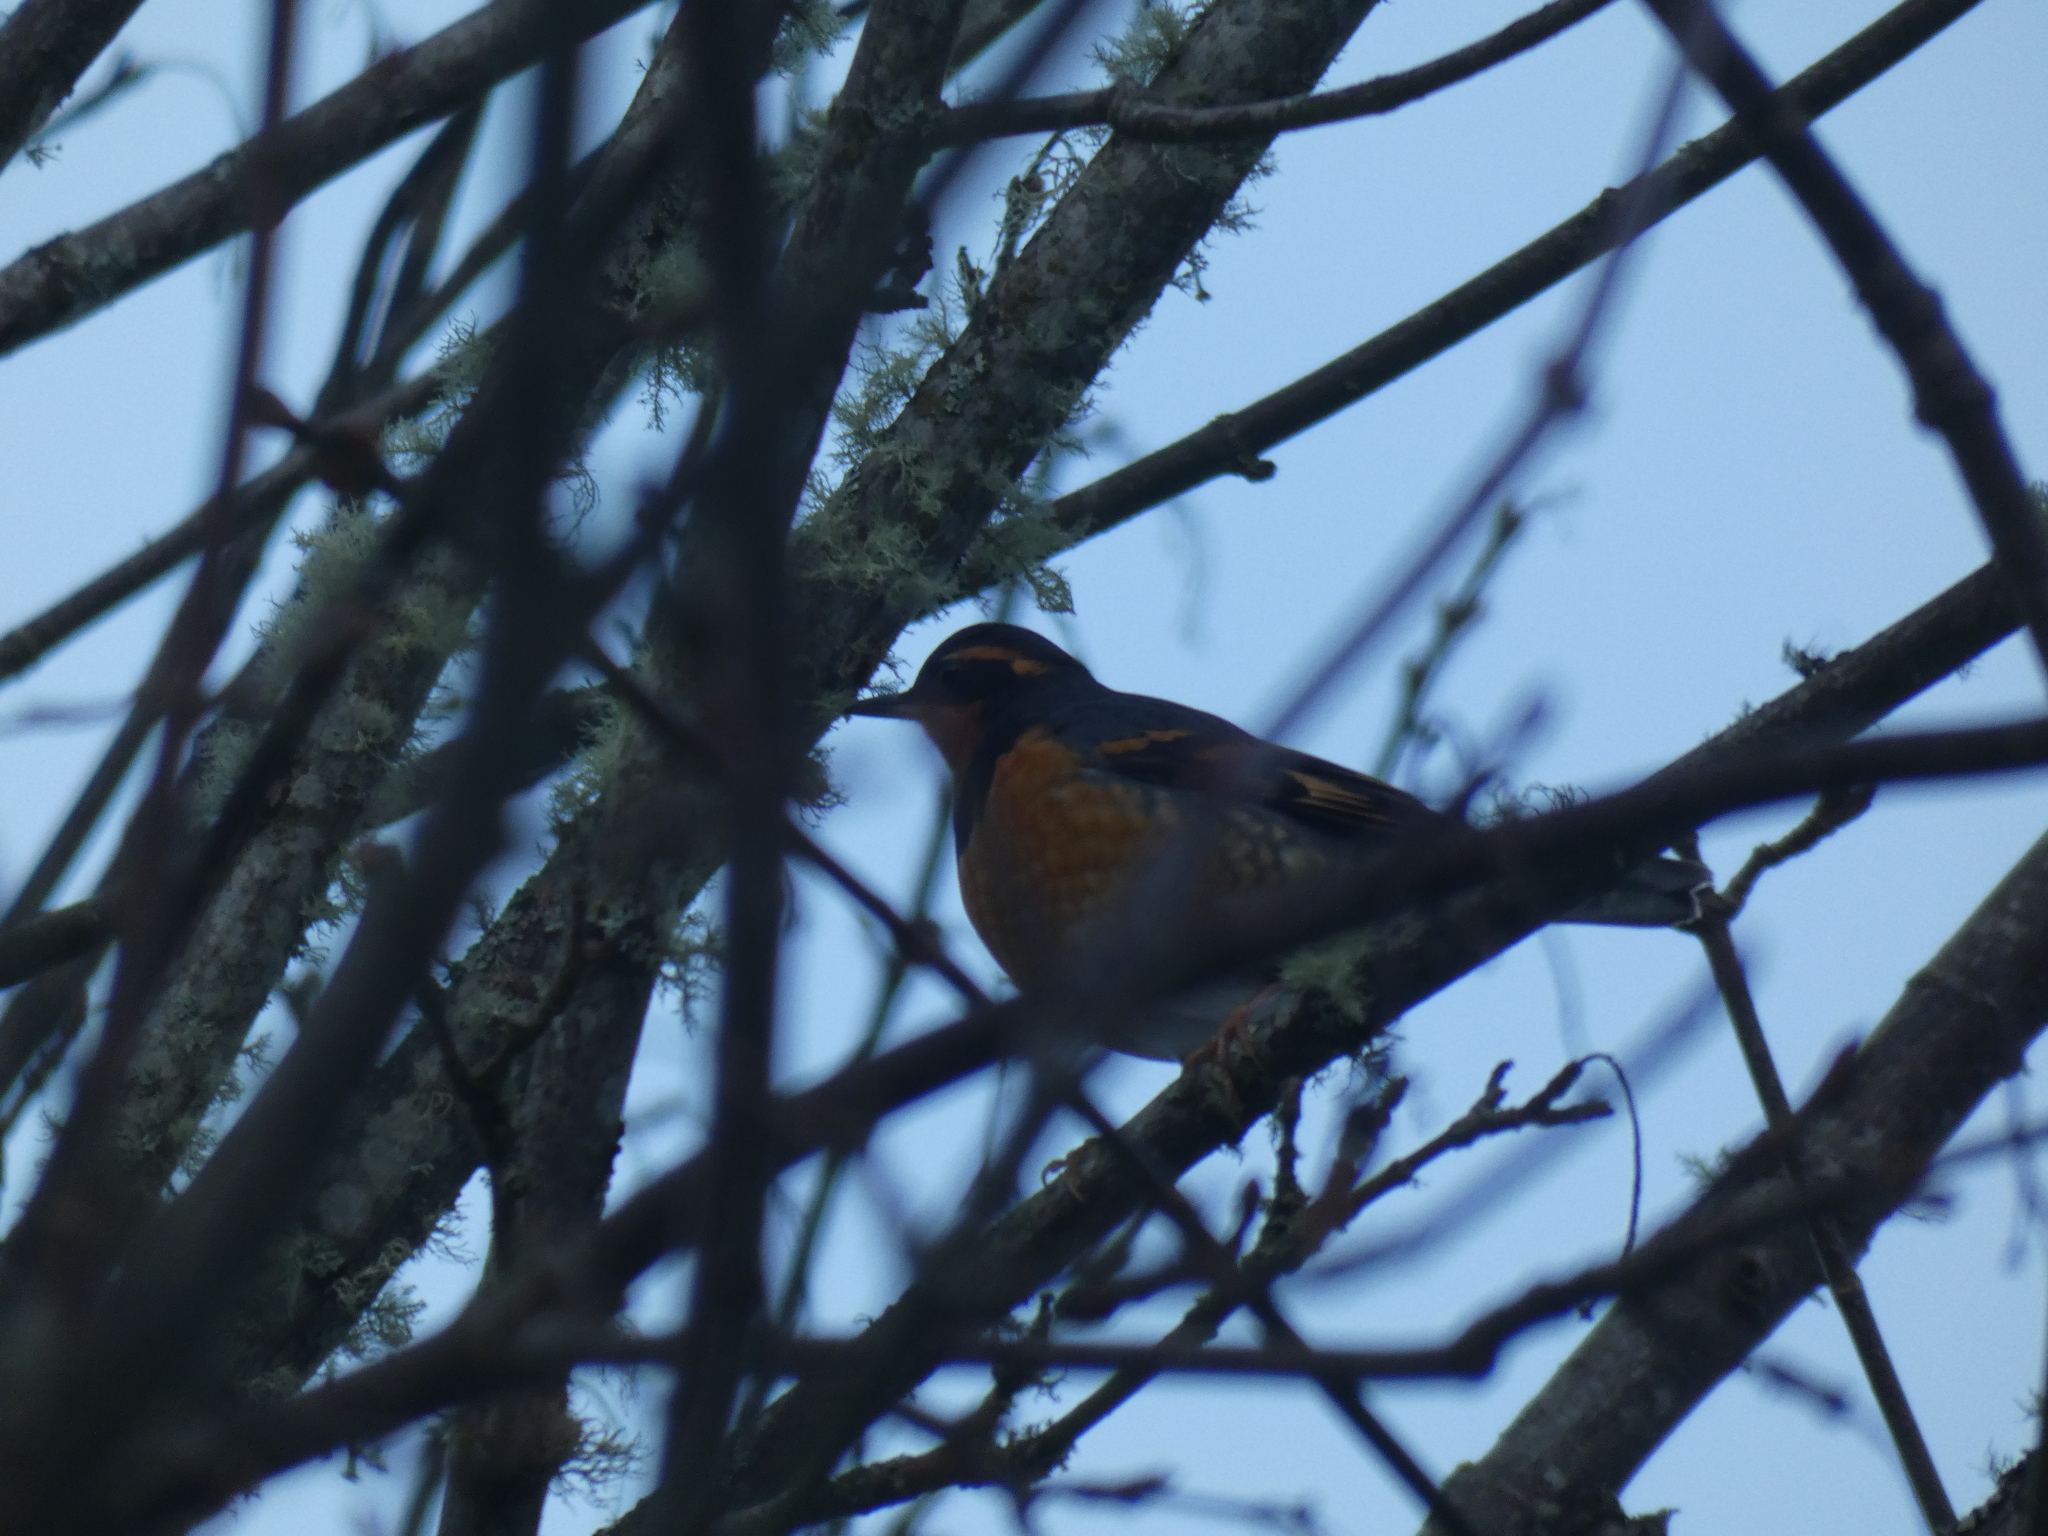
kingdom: Animalia
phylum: Chordata
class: Aves
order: Passeriformes
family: Turdidae
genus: Ixoreus
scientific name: Ixoreus naevius
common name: Varied thrush
